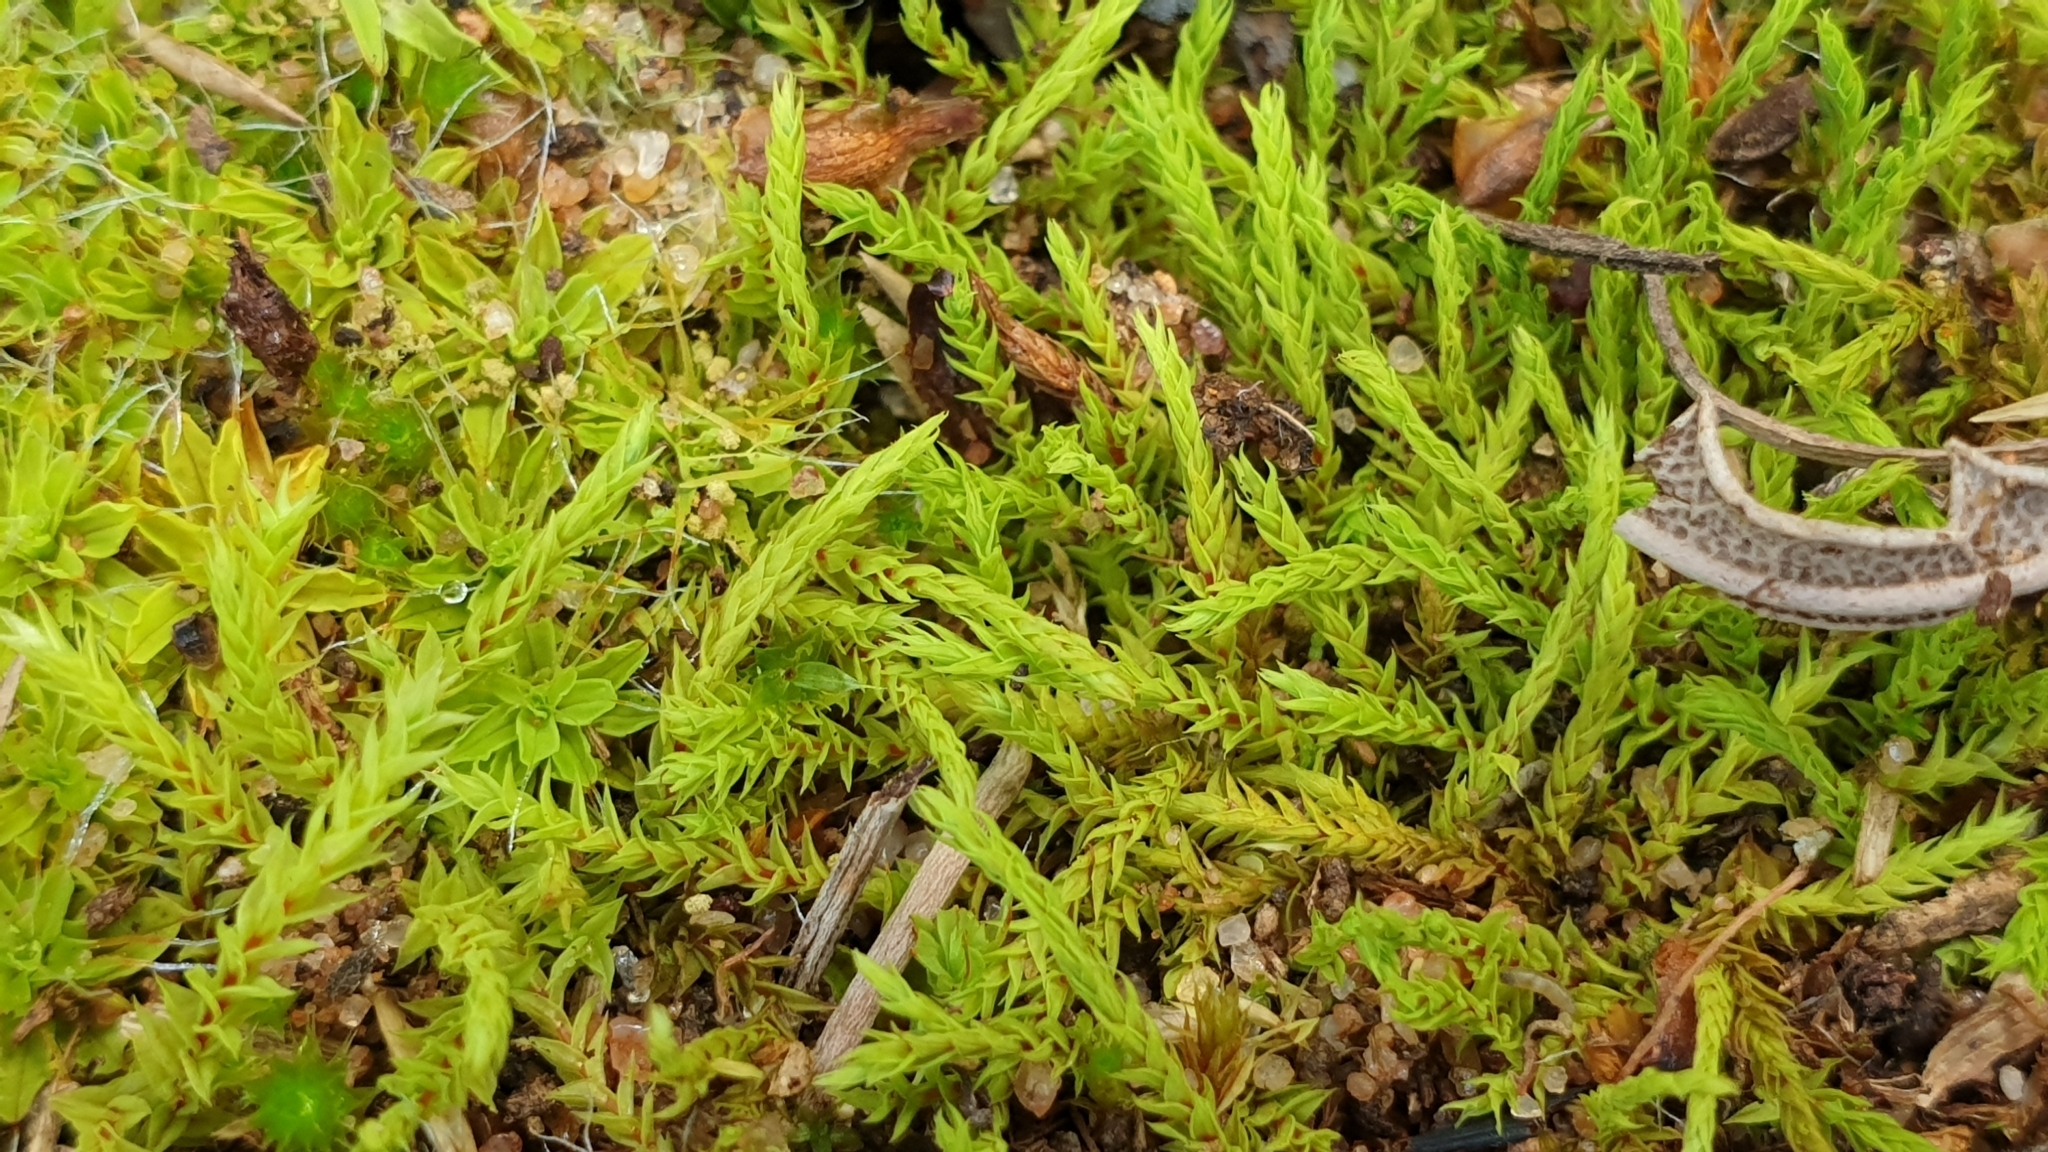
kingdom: Plantae
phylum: Bryophyta
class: Bryopsida
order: Pottiales
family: Pottiaceae
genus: Triquetrella
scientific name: Triquetrella papillata
